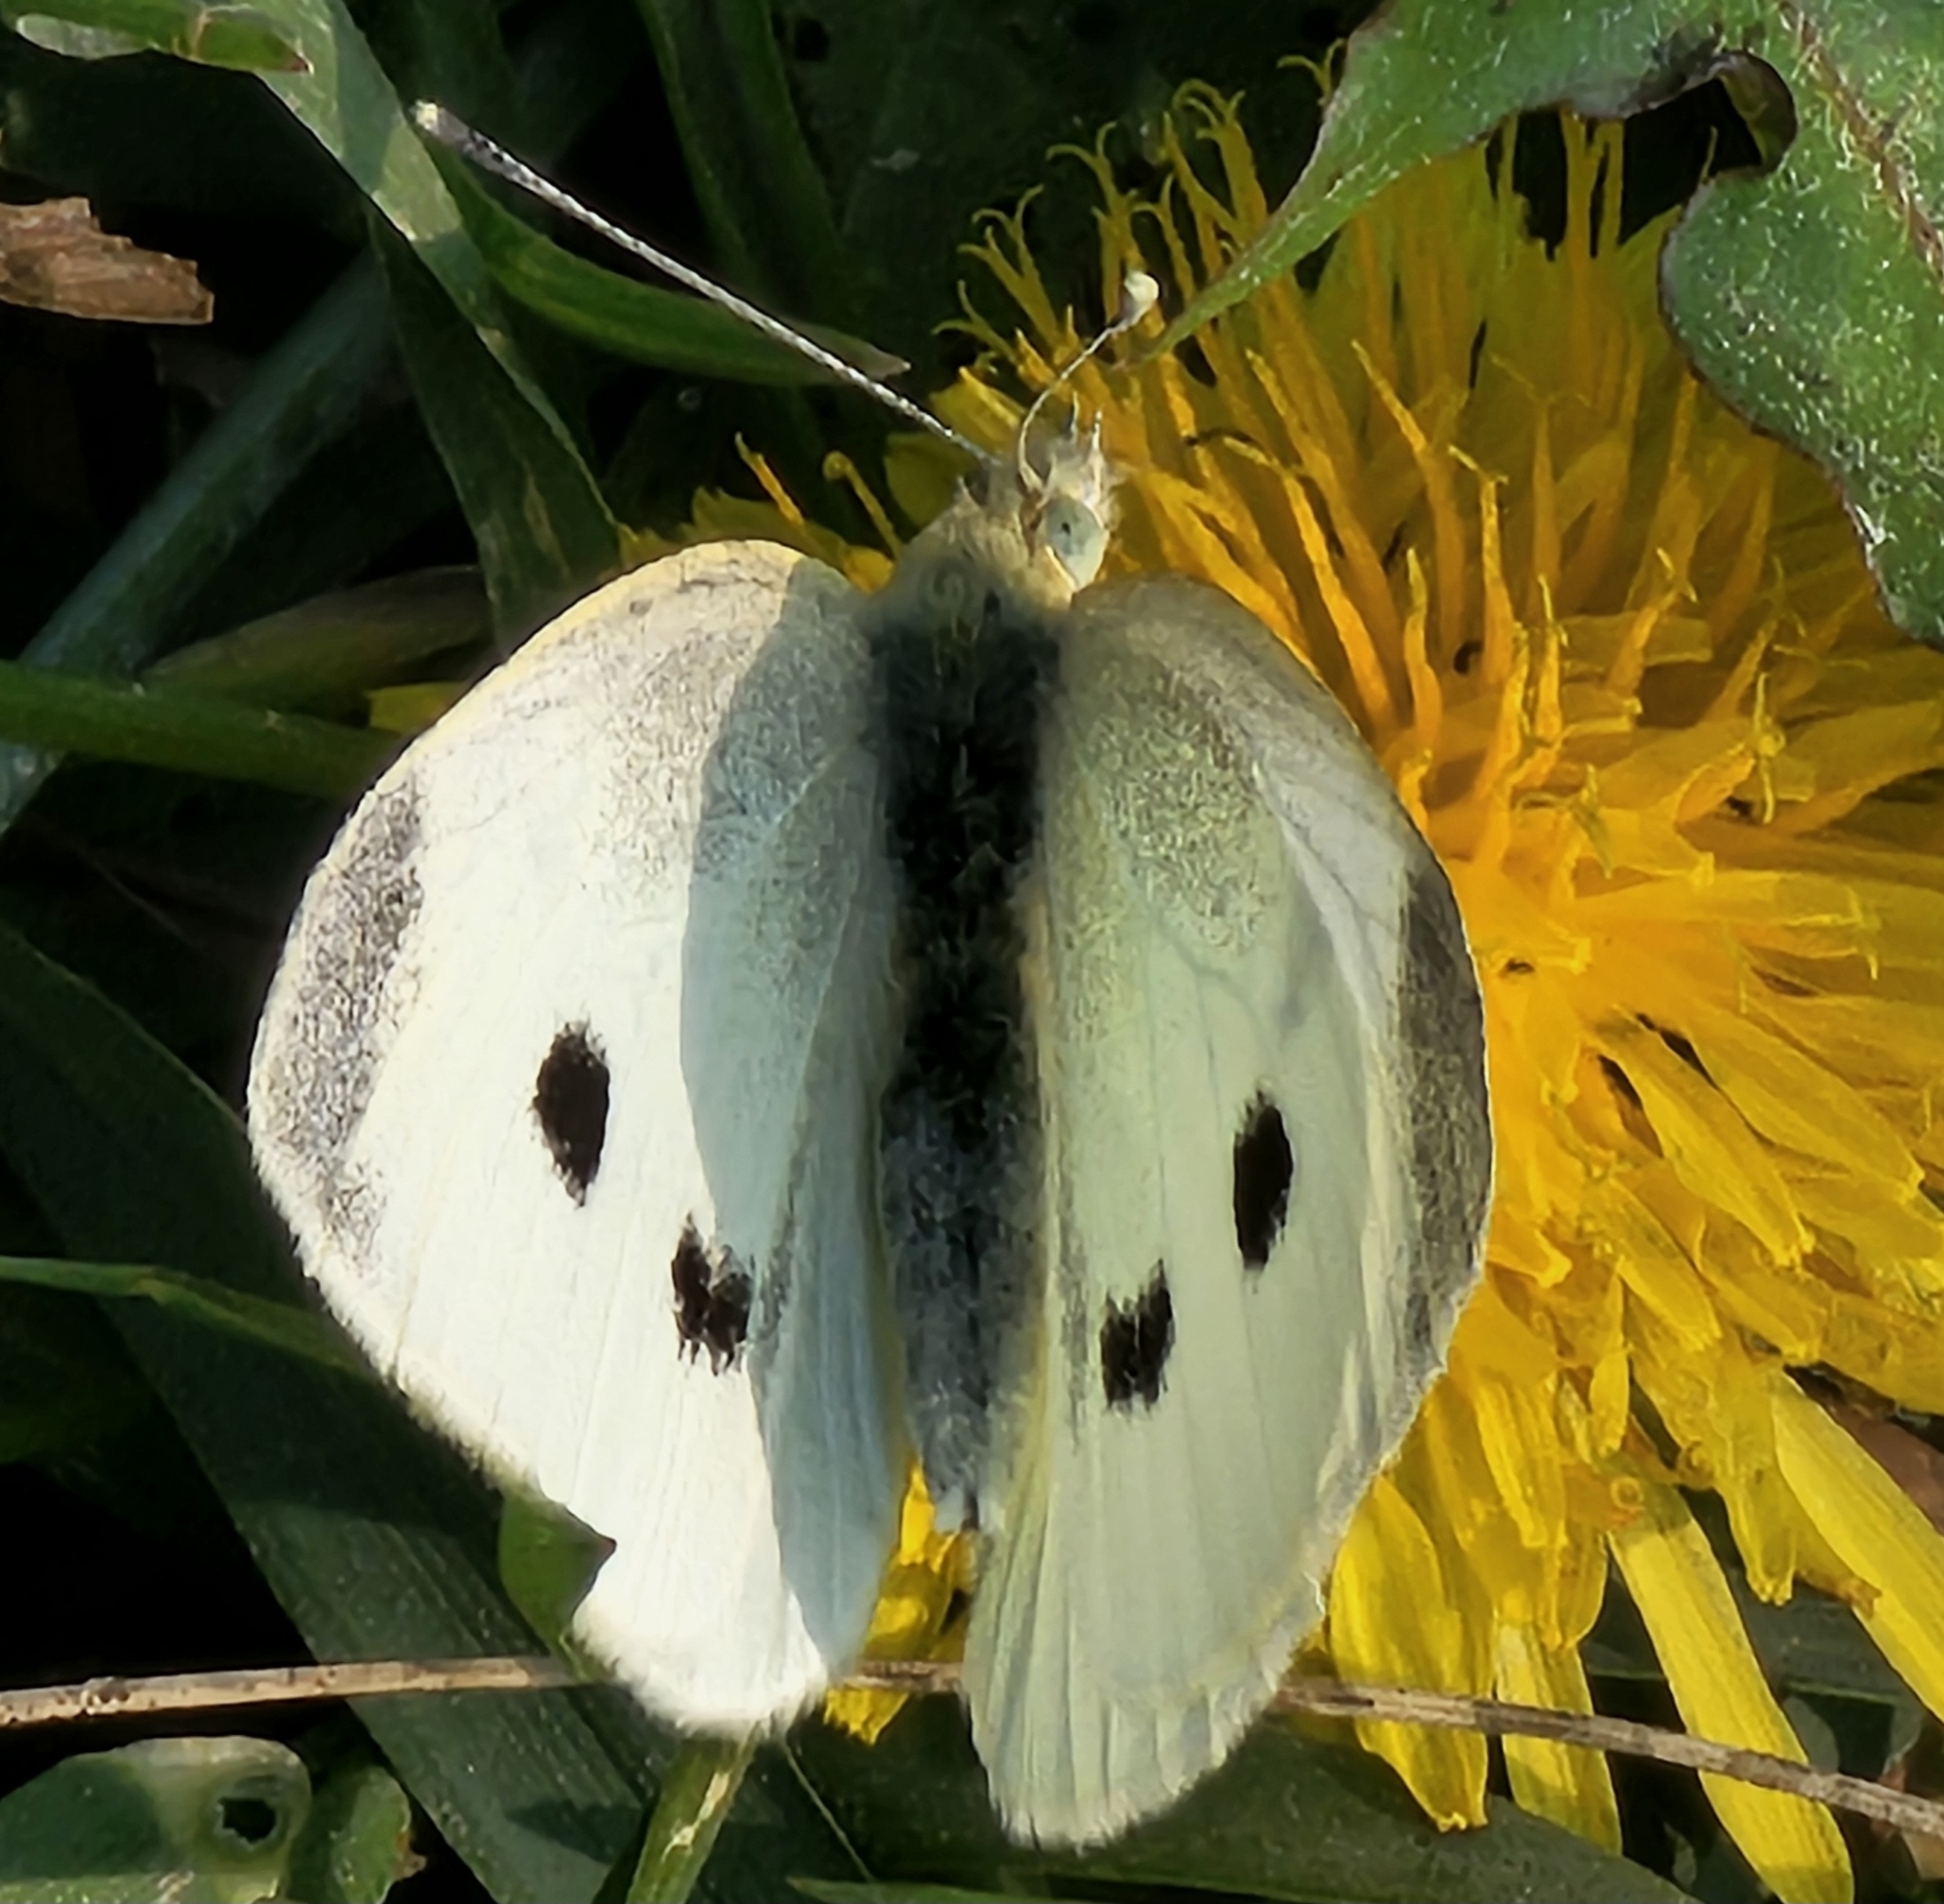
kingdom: Animalia
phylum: Arthropoda
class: Insecta
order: Lepidoptera
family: Pieridae
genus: Pieris
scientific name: Pieris rapae
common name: Small white
